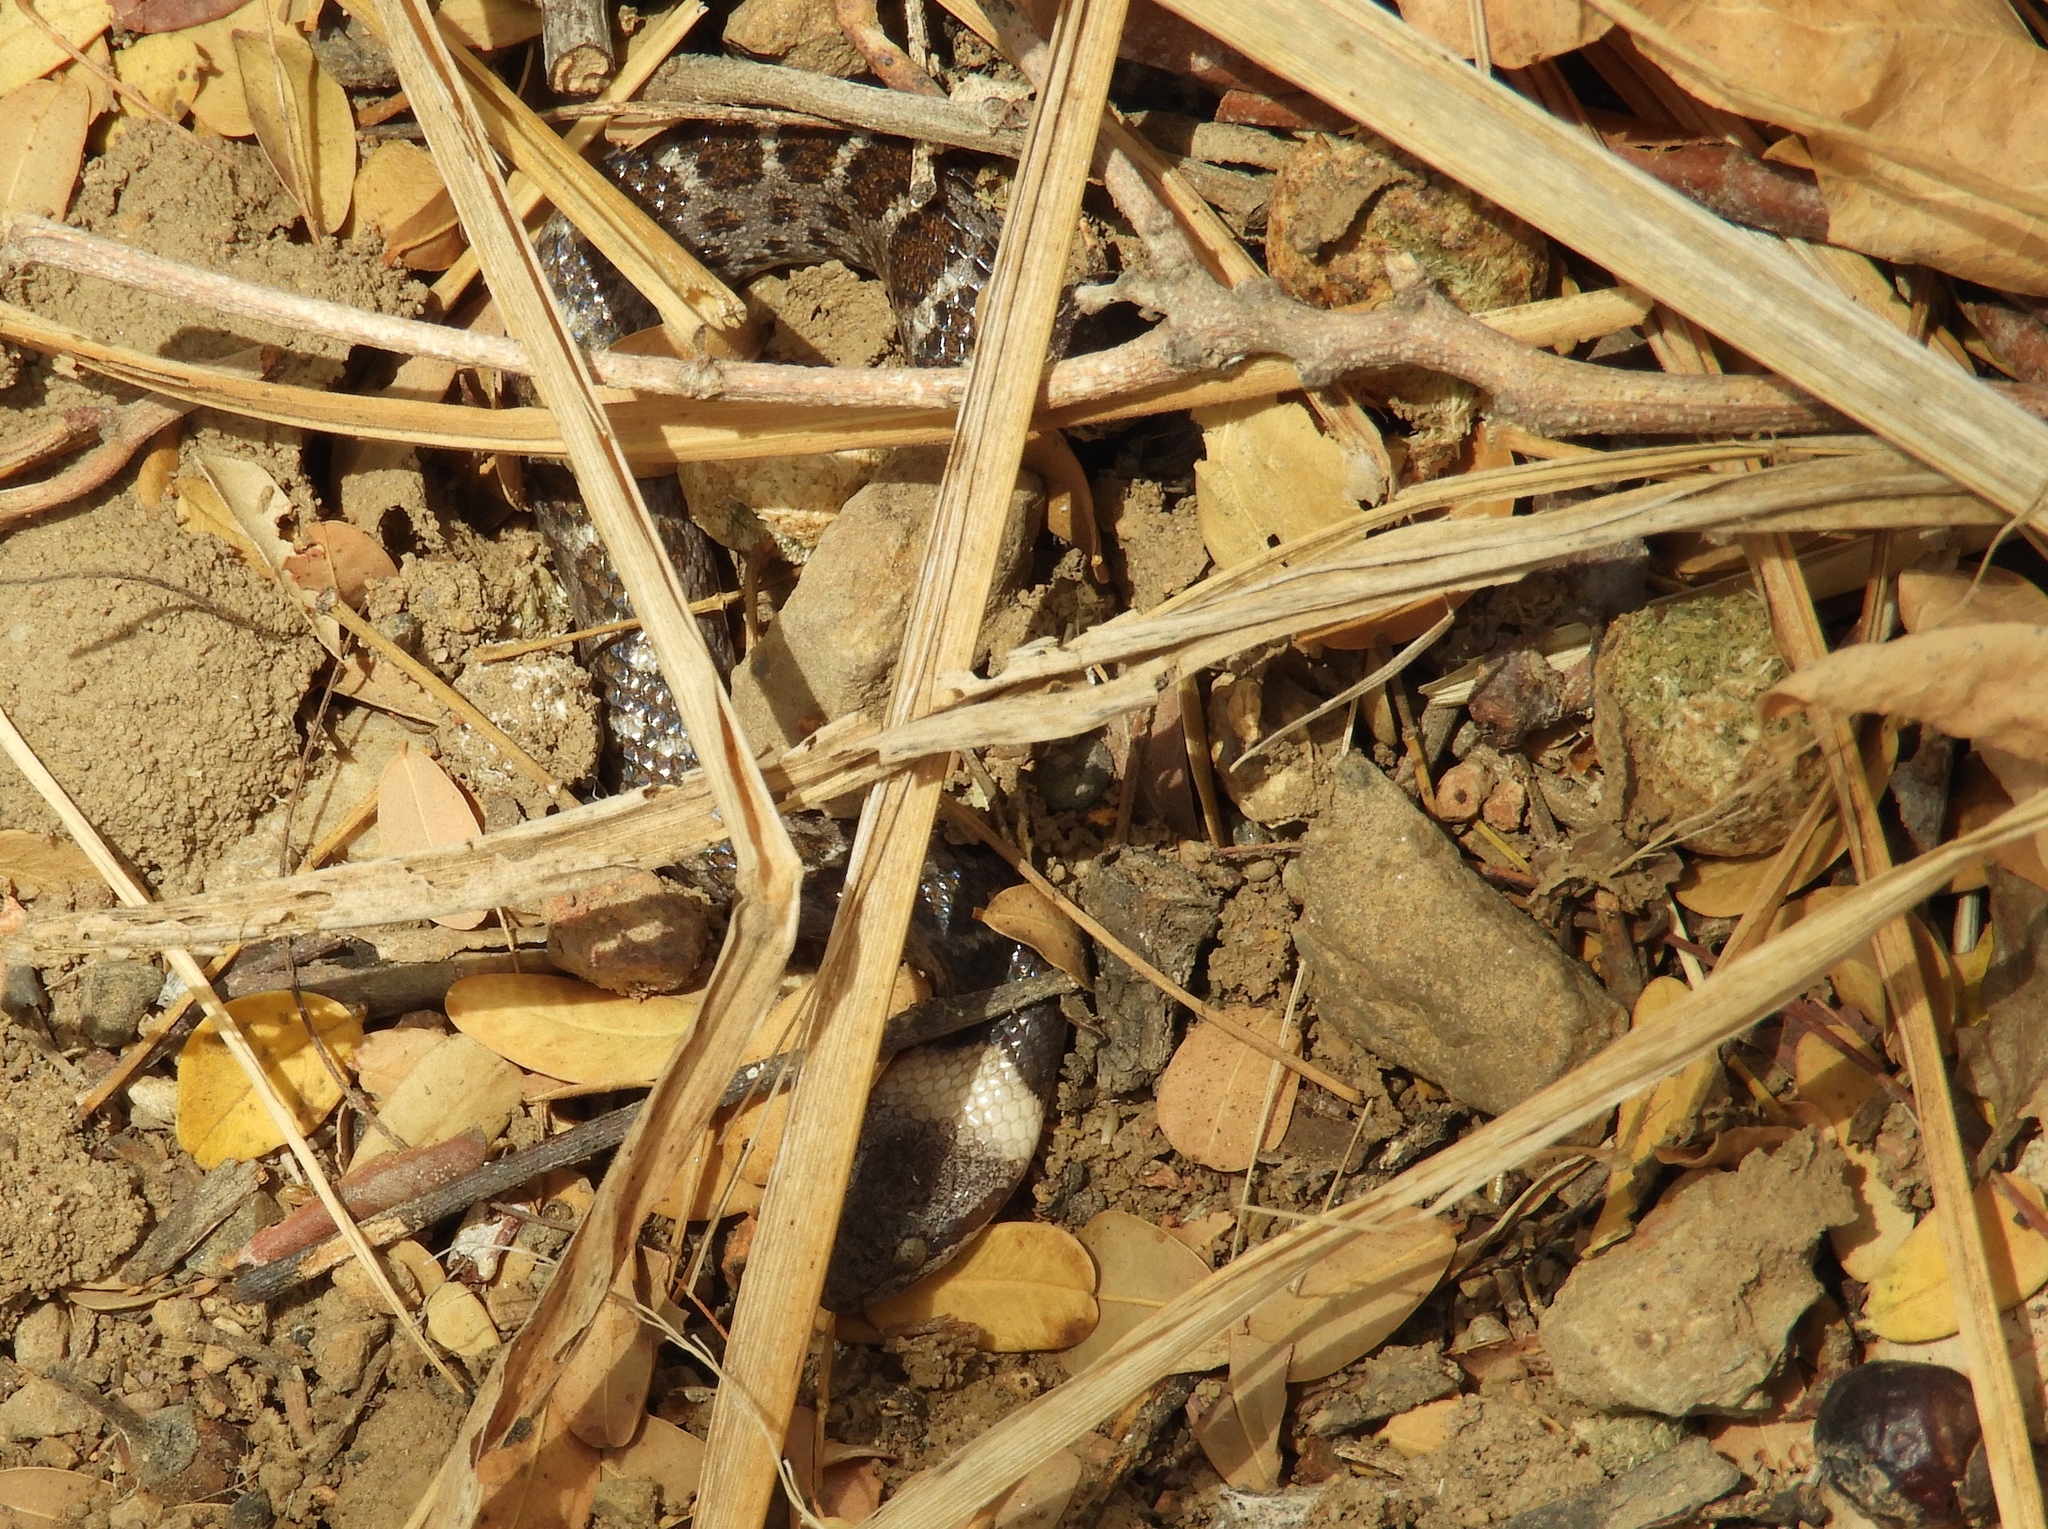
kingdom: Animalia
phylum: Chordata
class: Squamata
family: Colubridae
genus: Hypsiglena
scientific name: Hypsiglena torquata
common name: Night snake
